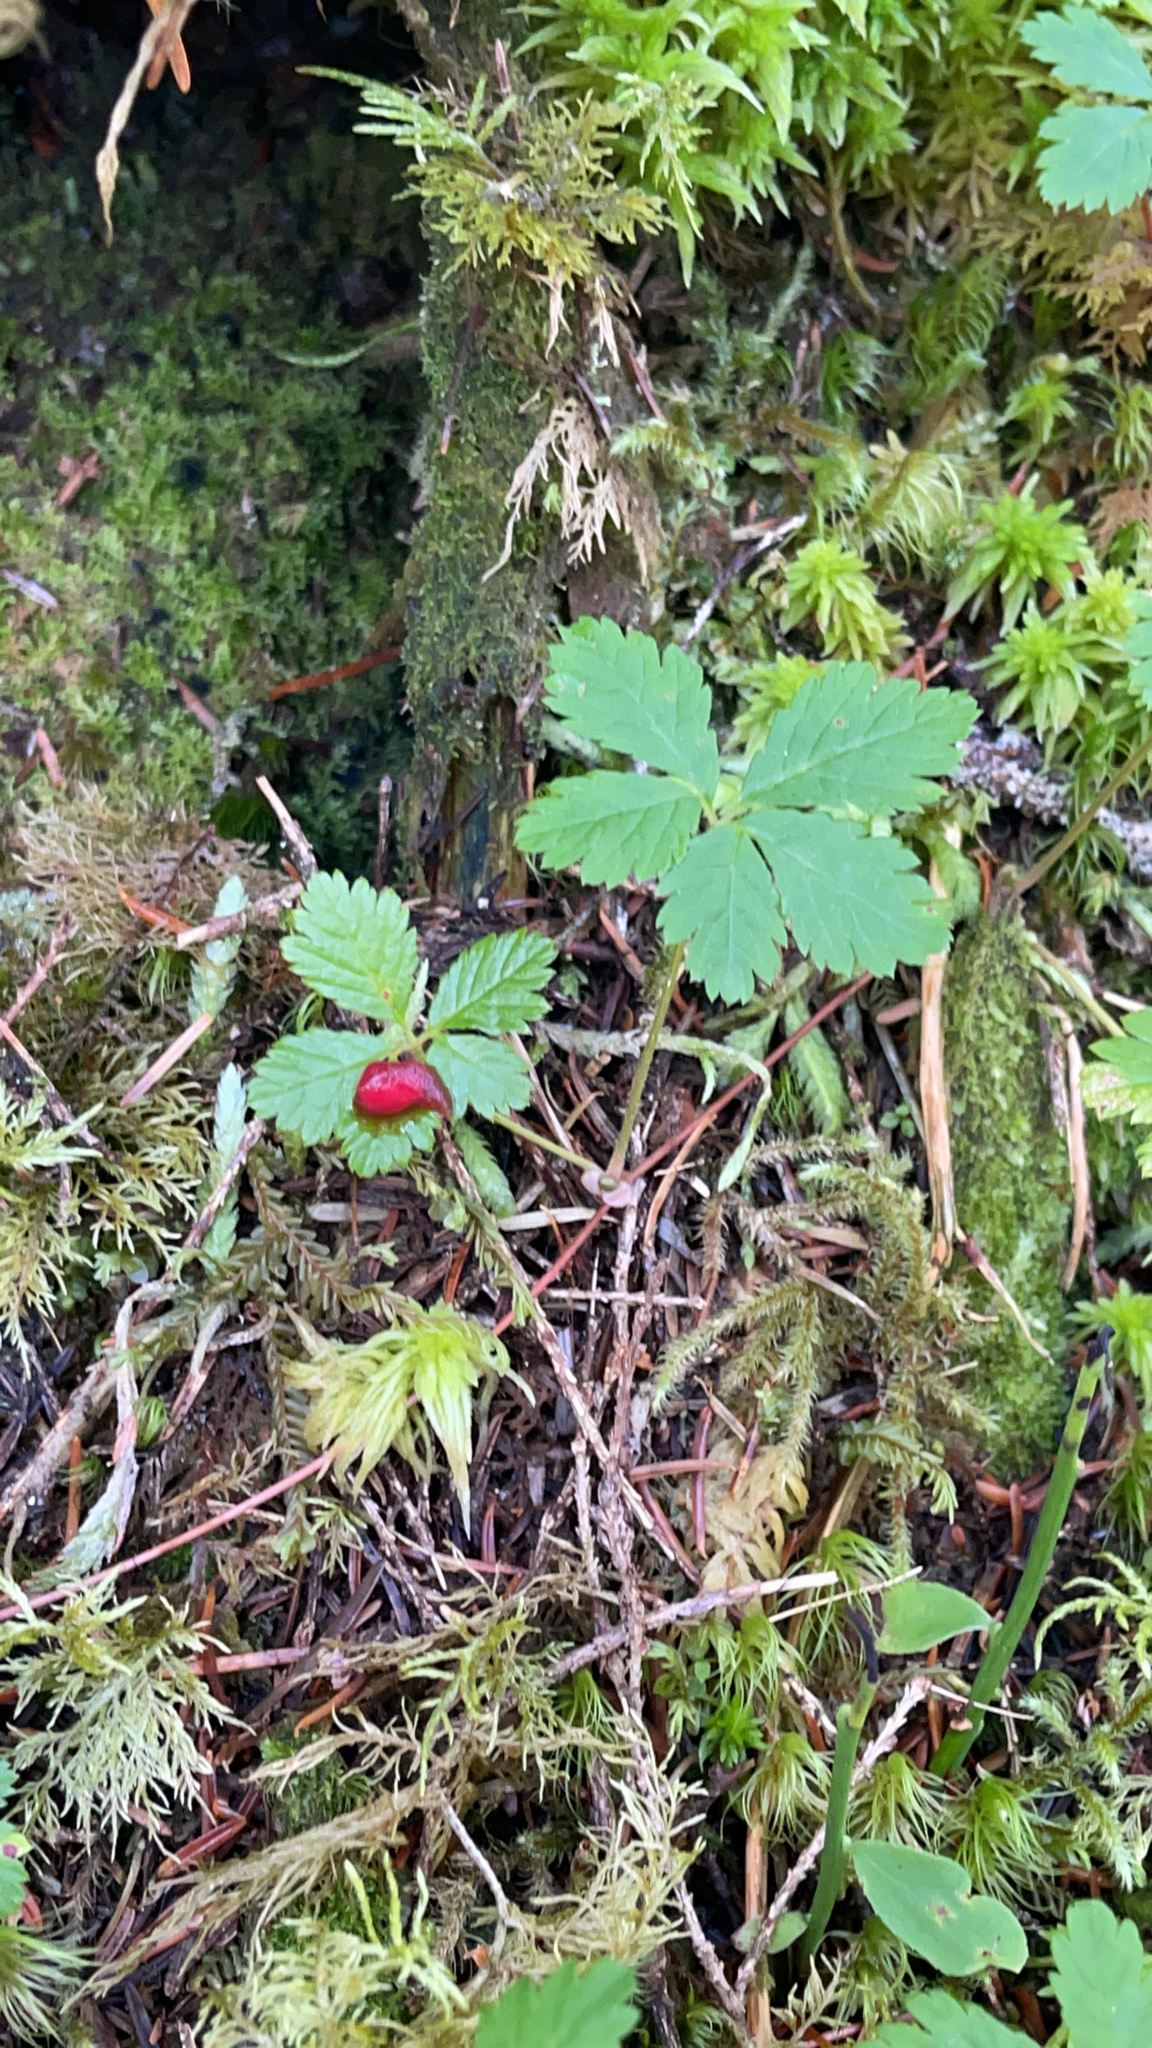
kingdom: Plantae
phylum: Tracheophyta
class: Magnoliopsida
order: Rosales
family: Rosaceae
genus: Rubus
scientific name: Rubus pedatus
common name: Creeping raspberry
